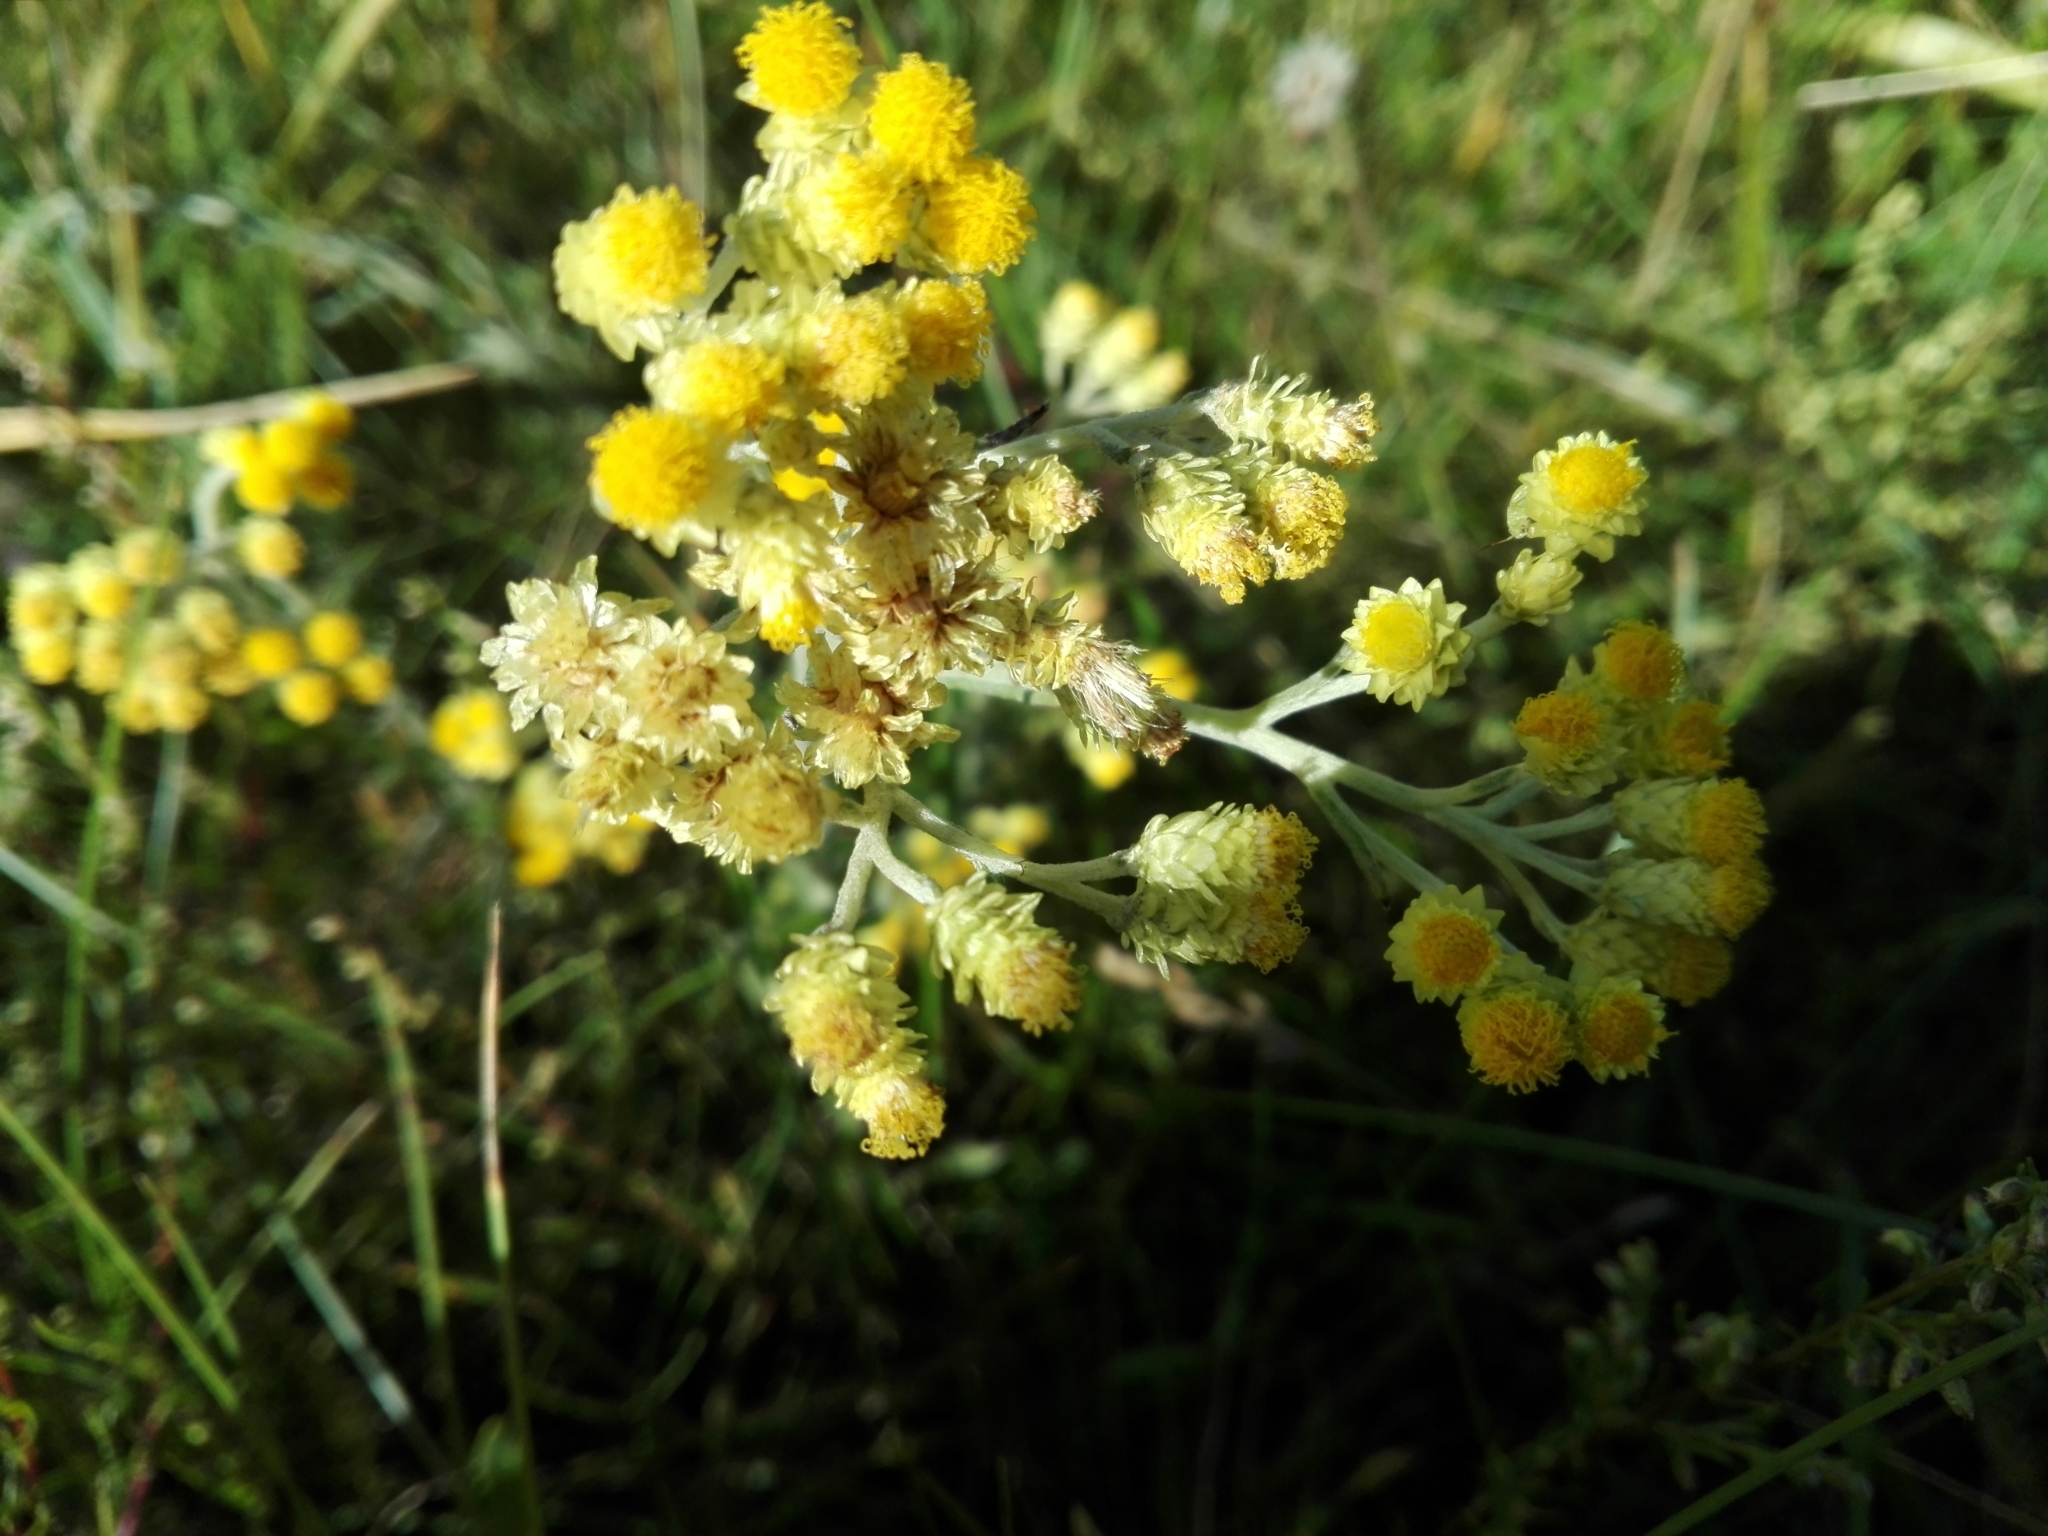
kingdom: Plantae
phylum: Tracheophyta
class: Magnoliopsida
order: Asterales
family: Asteraceae
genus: Helichrysum
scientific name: Helichrysum arenarium
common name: Strawflower
